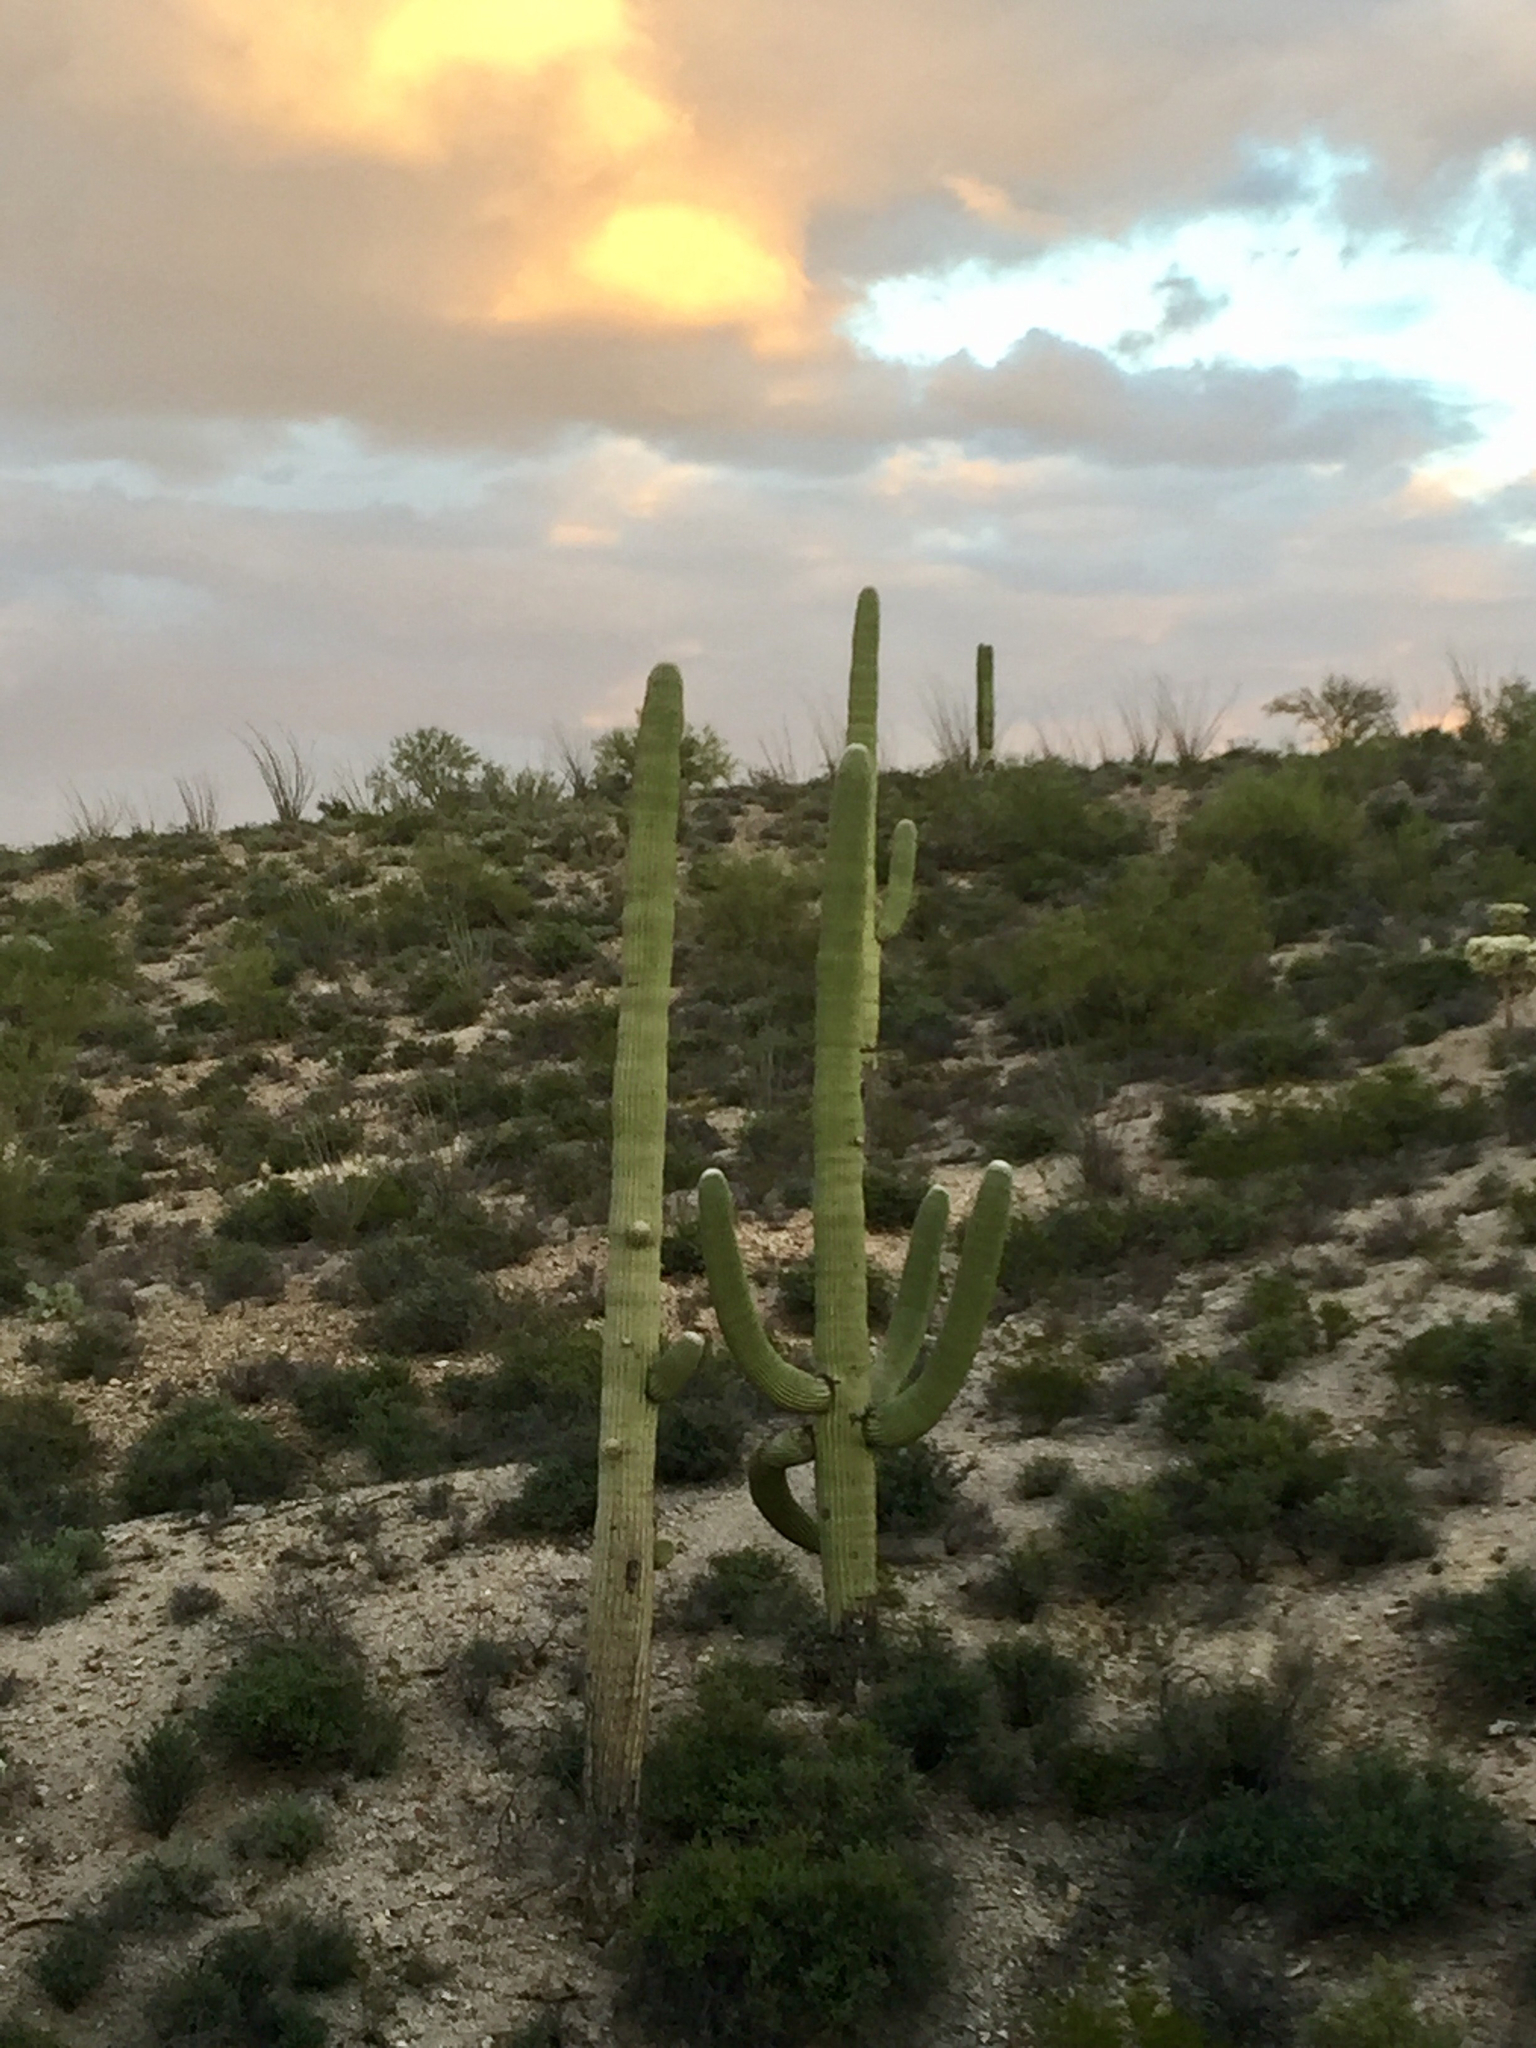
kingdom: Plantae
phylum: Tracheophyta
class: Magnoliopsida
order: Caryophyllales
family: Cactaceae
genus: Carnegiea
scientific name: Carnegiea gigantea
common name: Saguaro
